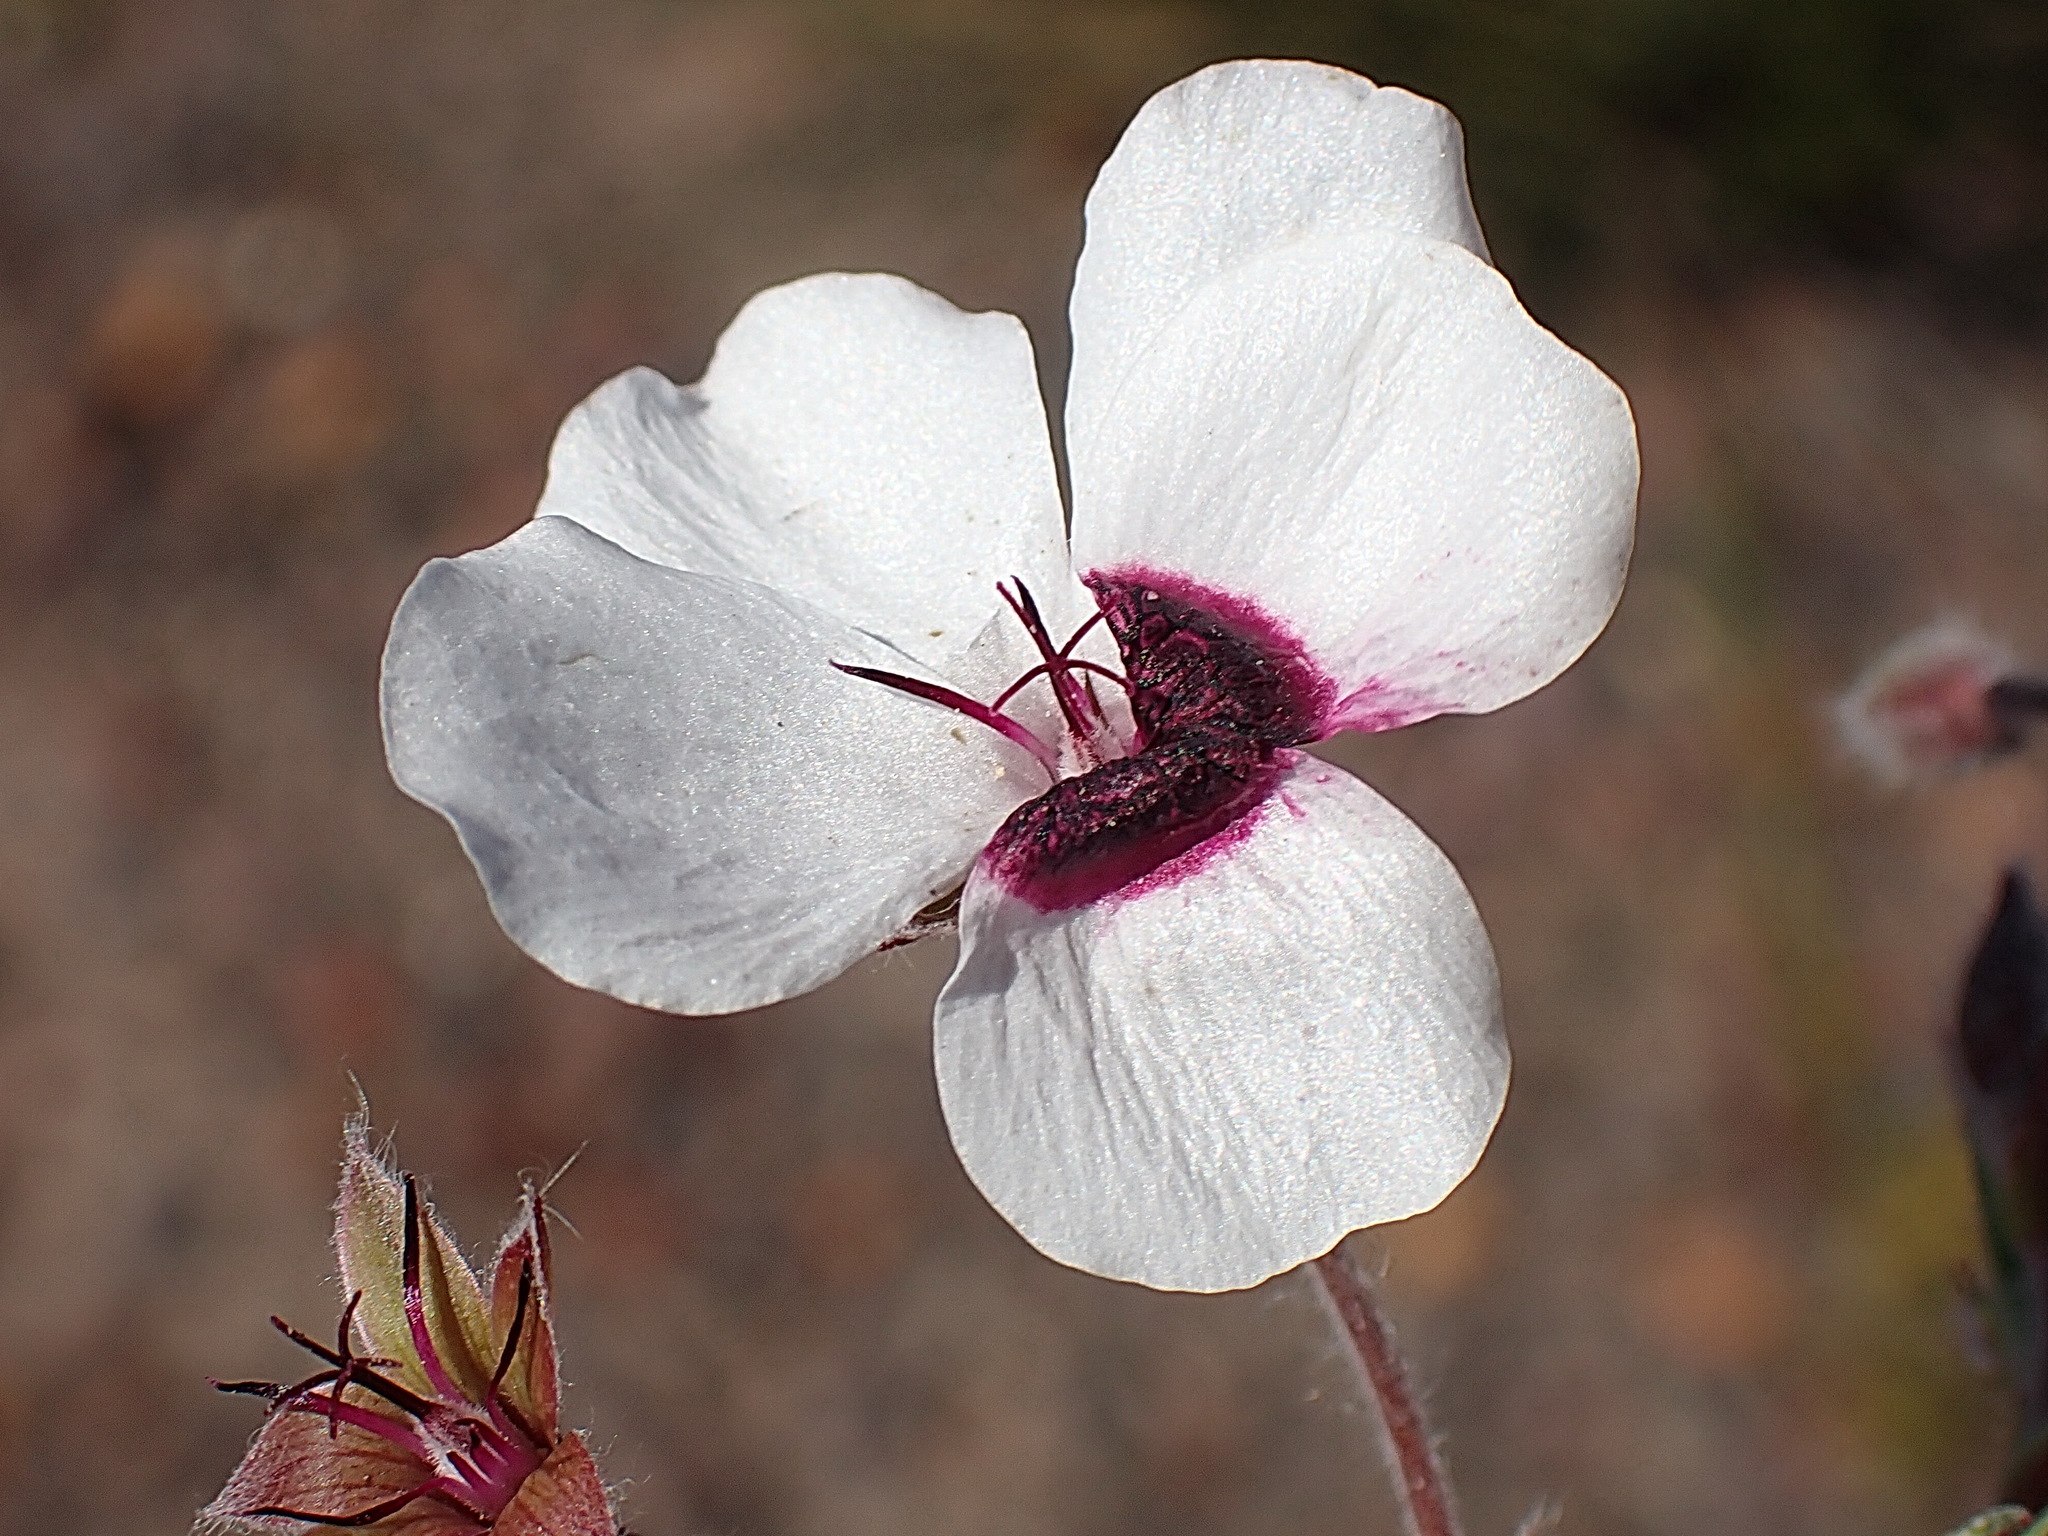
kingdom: Plantae
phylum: Tracheophyta
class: Magnoliopsida
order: Geraniales
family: Geraniaceae
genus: Pelargonium
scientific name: Pelargonium tricolor
